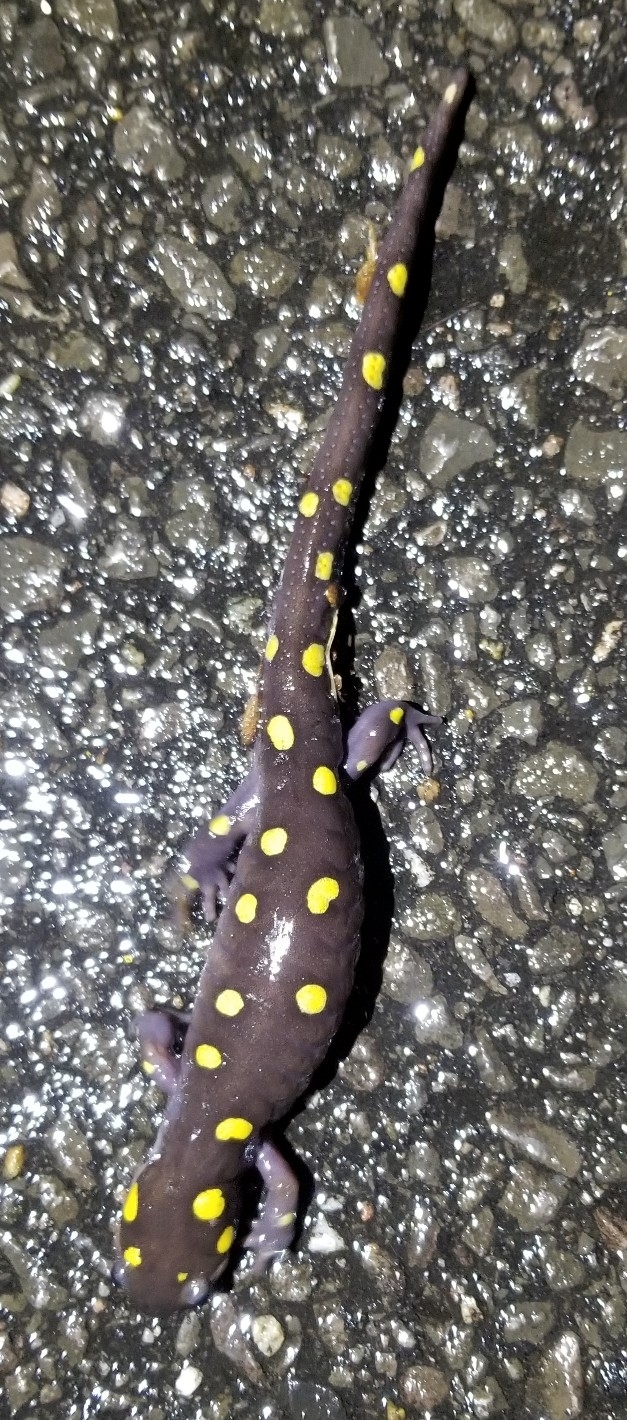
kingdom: Animalia
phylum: Chordata
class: Amphibia
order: Caudata
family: Ambystomatidae
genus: Ambystoma
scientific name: Ambystoma maculatum
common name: Spotted salamander
